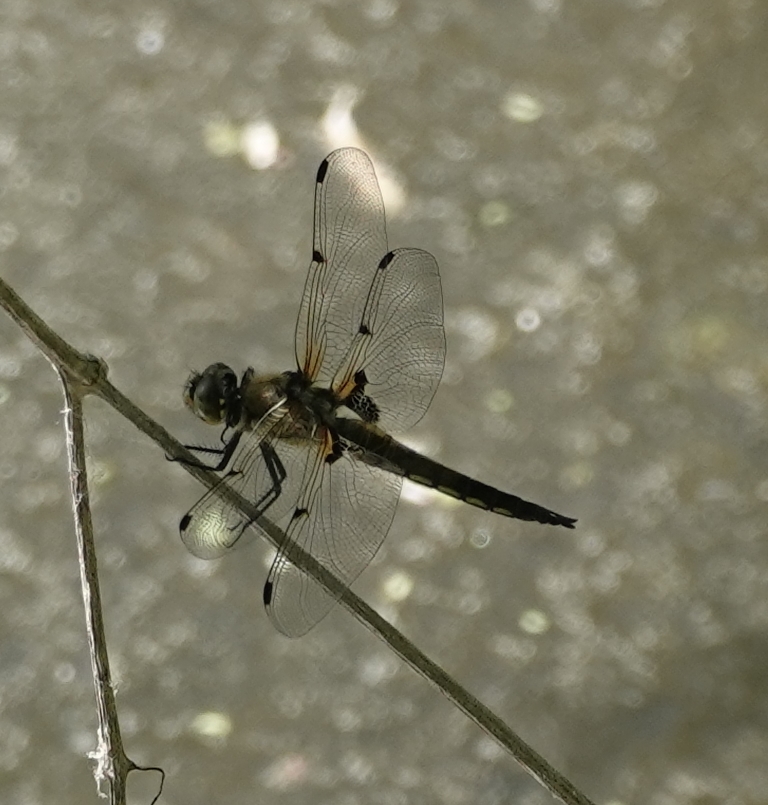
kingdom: Animalia
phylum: Arthropoda
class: Insecta
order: Odonata
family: Libellulidae
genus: Libellula
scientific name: Libellula quadrimaculata
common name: Four-spotted chaser
